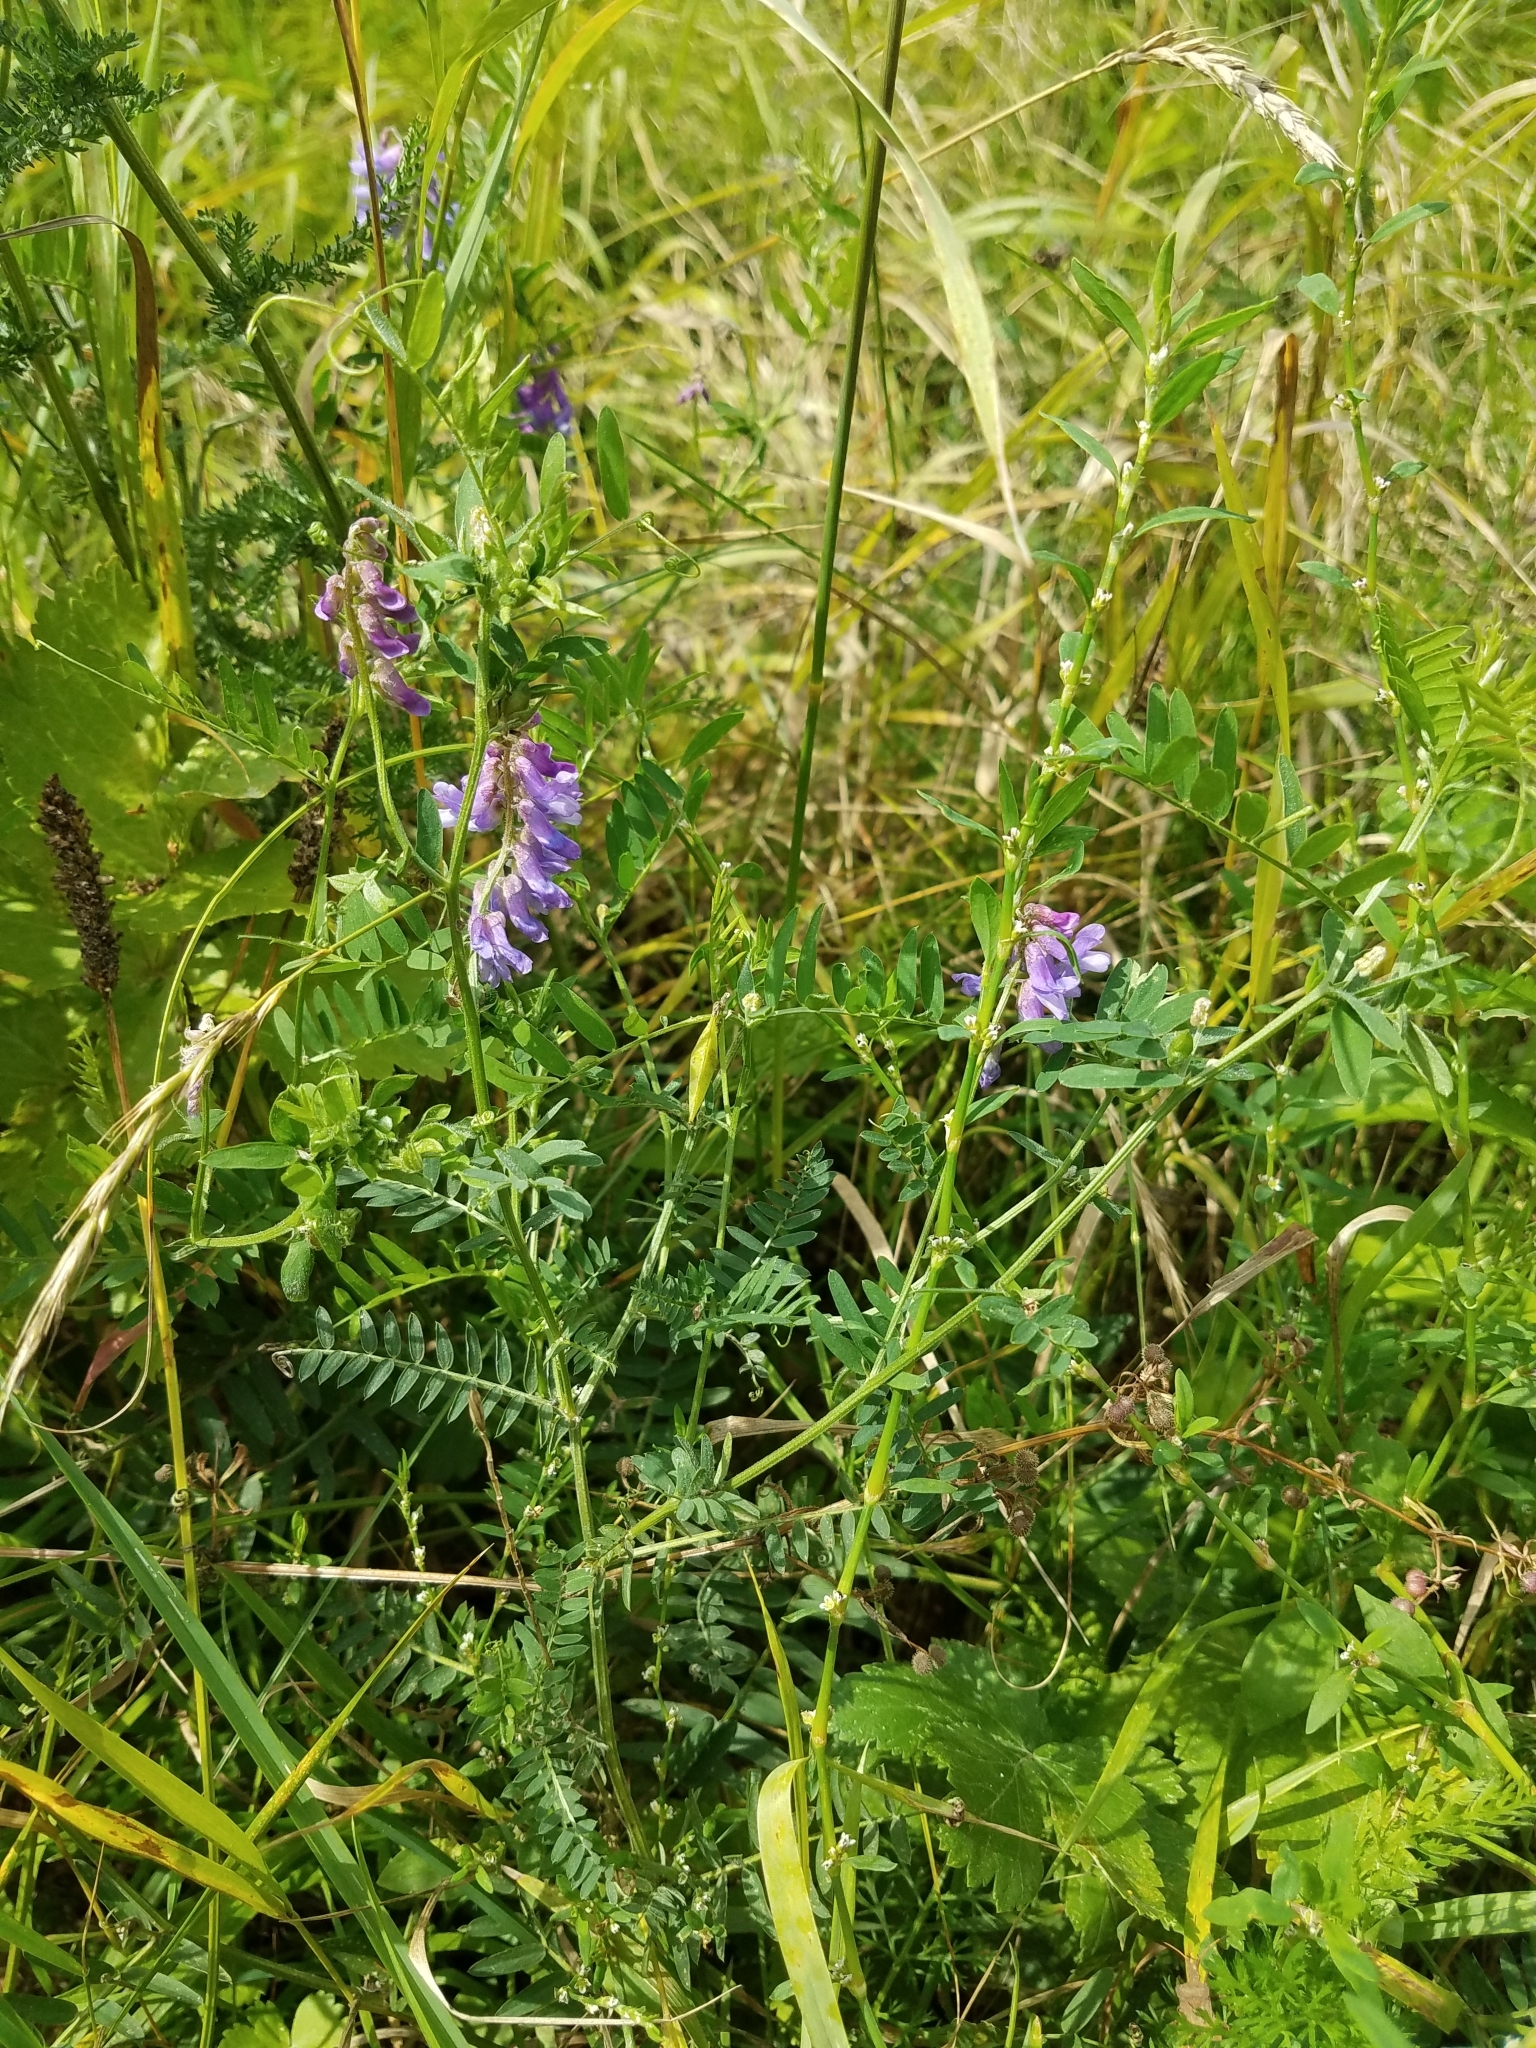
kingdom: Plantae
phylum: Tracheophyta
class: Magnoliopsida
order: Fabales
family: Fabaceae
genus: Vicia
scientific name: Vicia cracca
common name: Bird vetch
